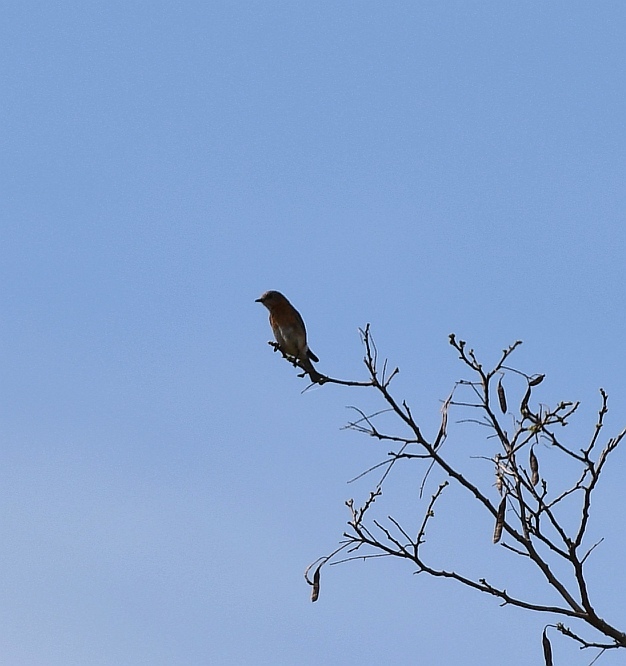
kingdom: Animalia
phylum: Chordata
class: Aves
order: Passeriformes
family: Turdidae
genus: Sialia
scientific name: Sialia sialis
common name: Eastern bluebird
